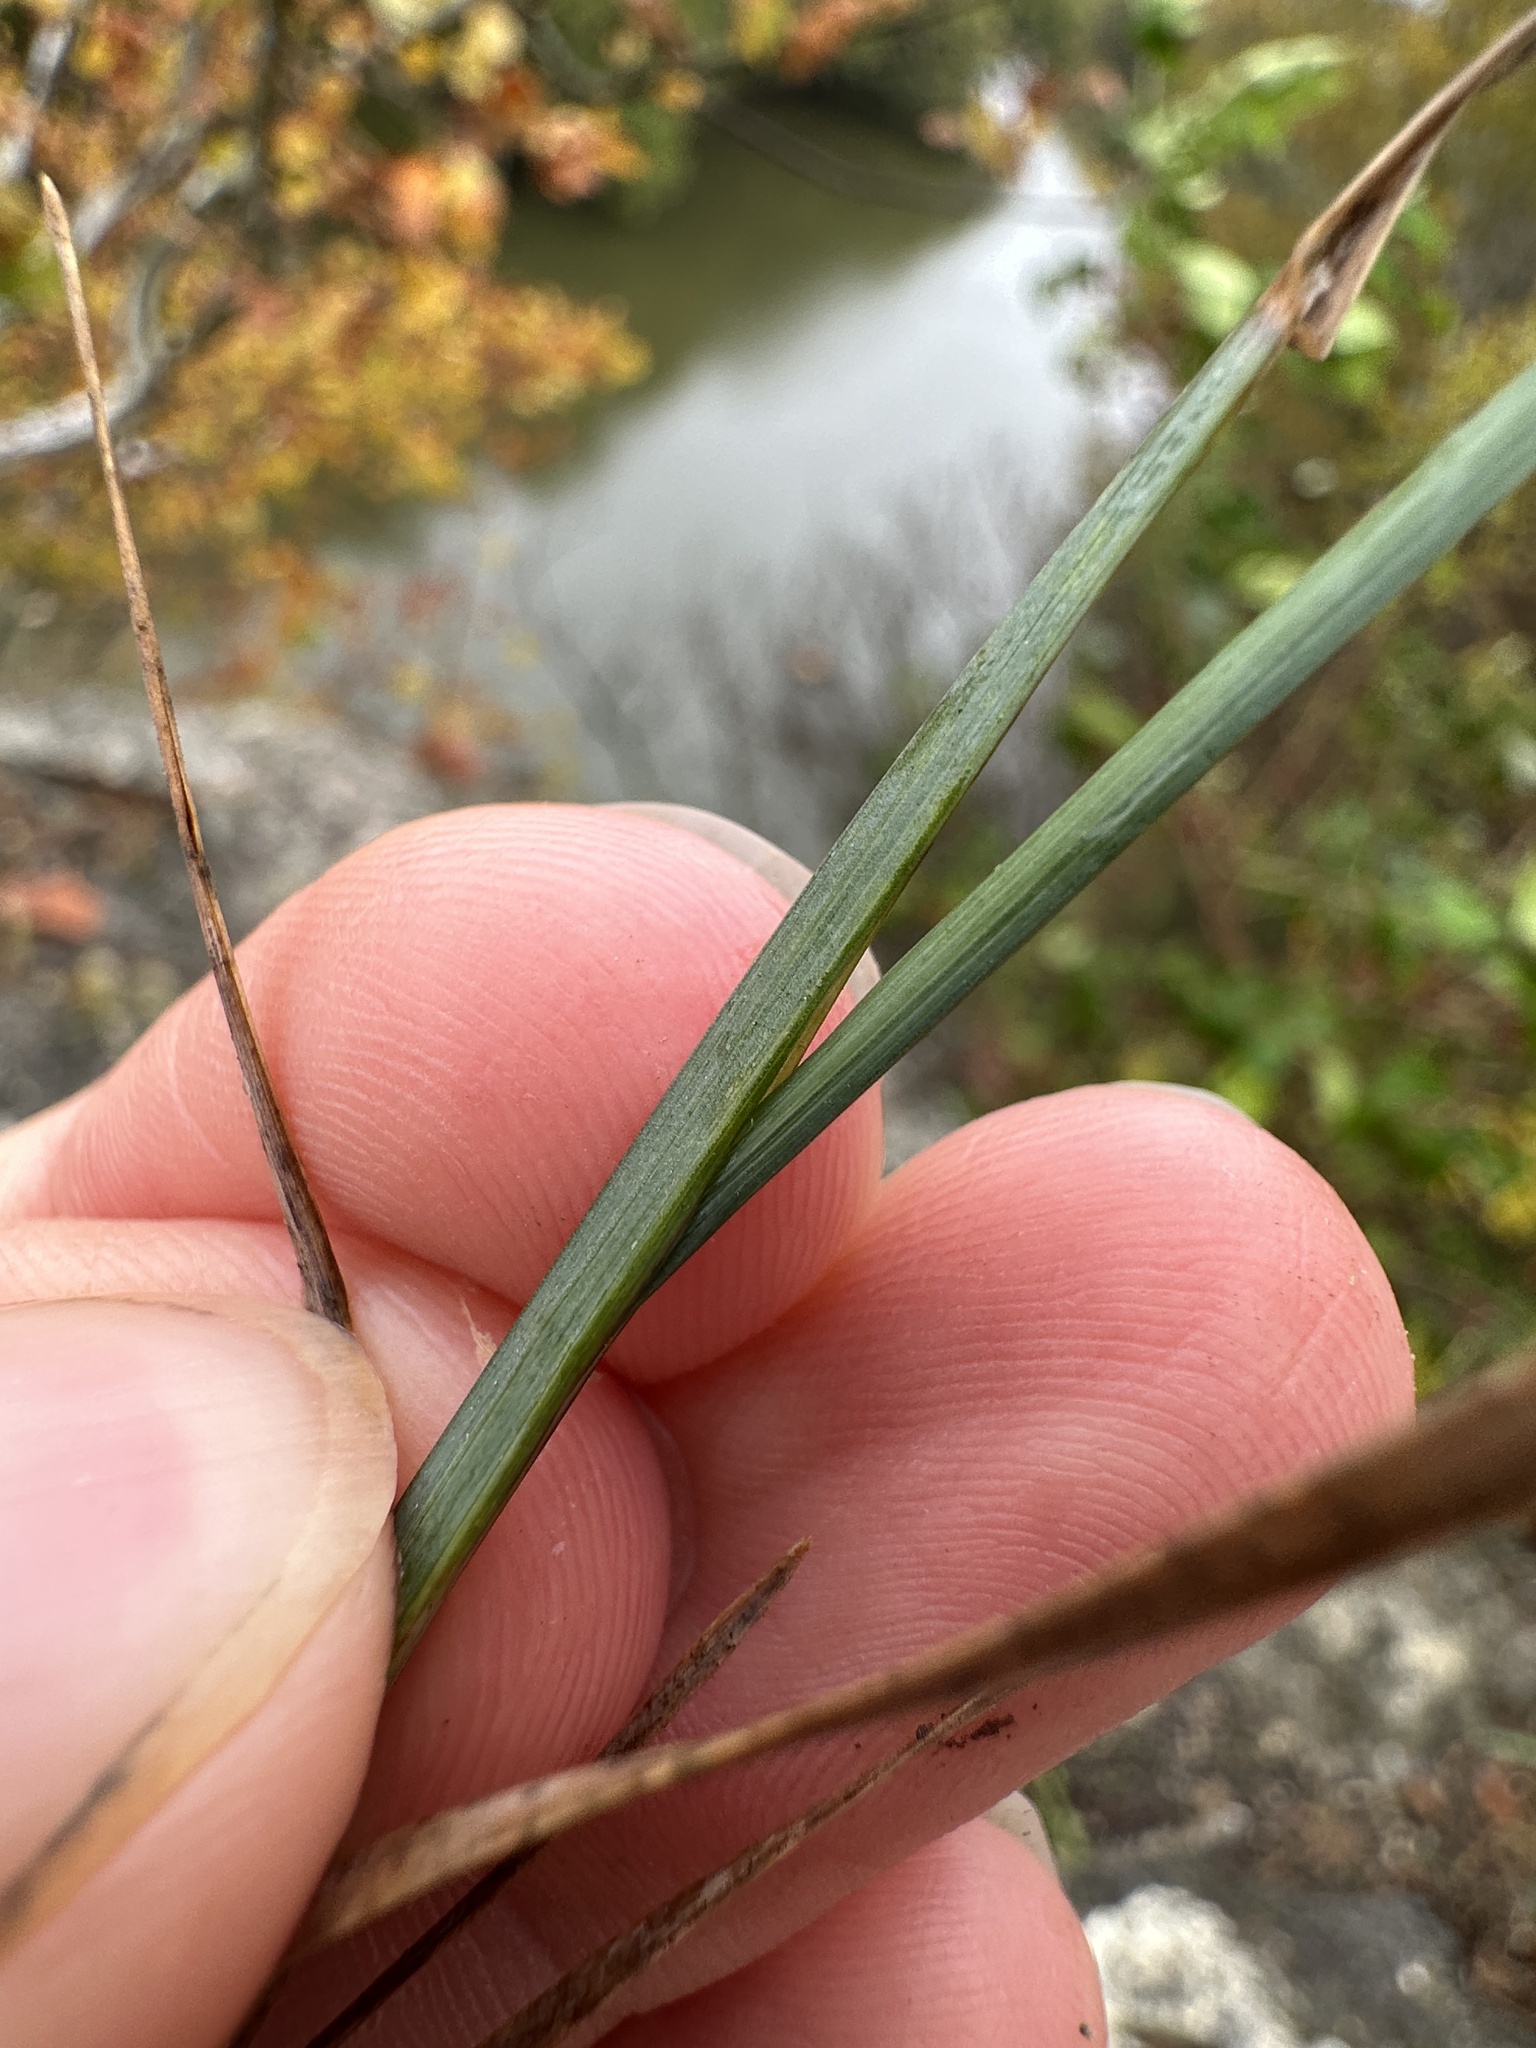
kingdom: Plantae
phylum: Tracheophyta
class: Liliopsida
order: Poales
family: Poaceae
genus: Poa
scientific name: Poa compressa
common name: Canada bluegrass
